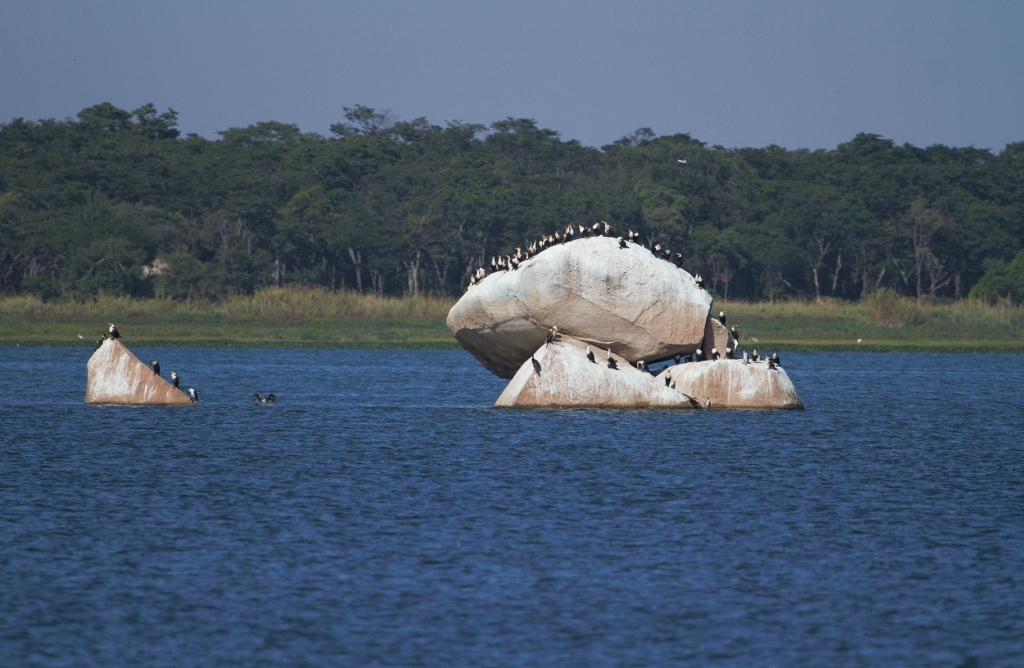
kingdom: Animalia
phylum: Chordata
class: Aves
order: Suliformes
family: Phalacrocoracidae
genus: Phalacrocorax
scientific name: Phalacrocorax carbo
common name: Great cormorant
